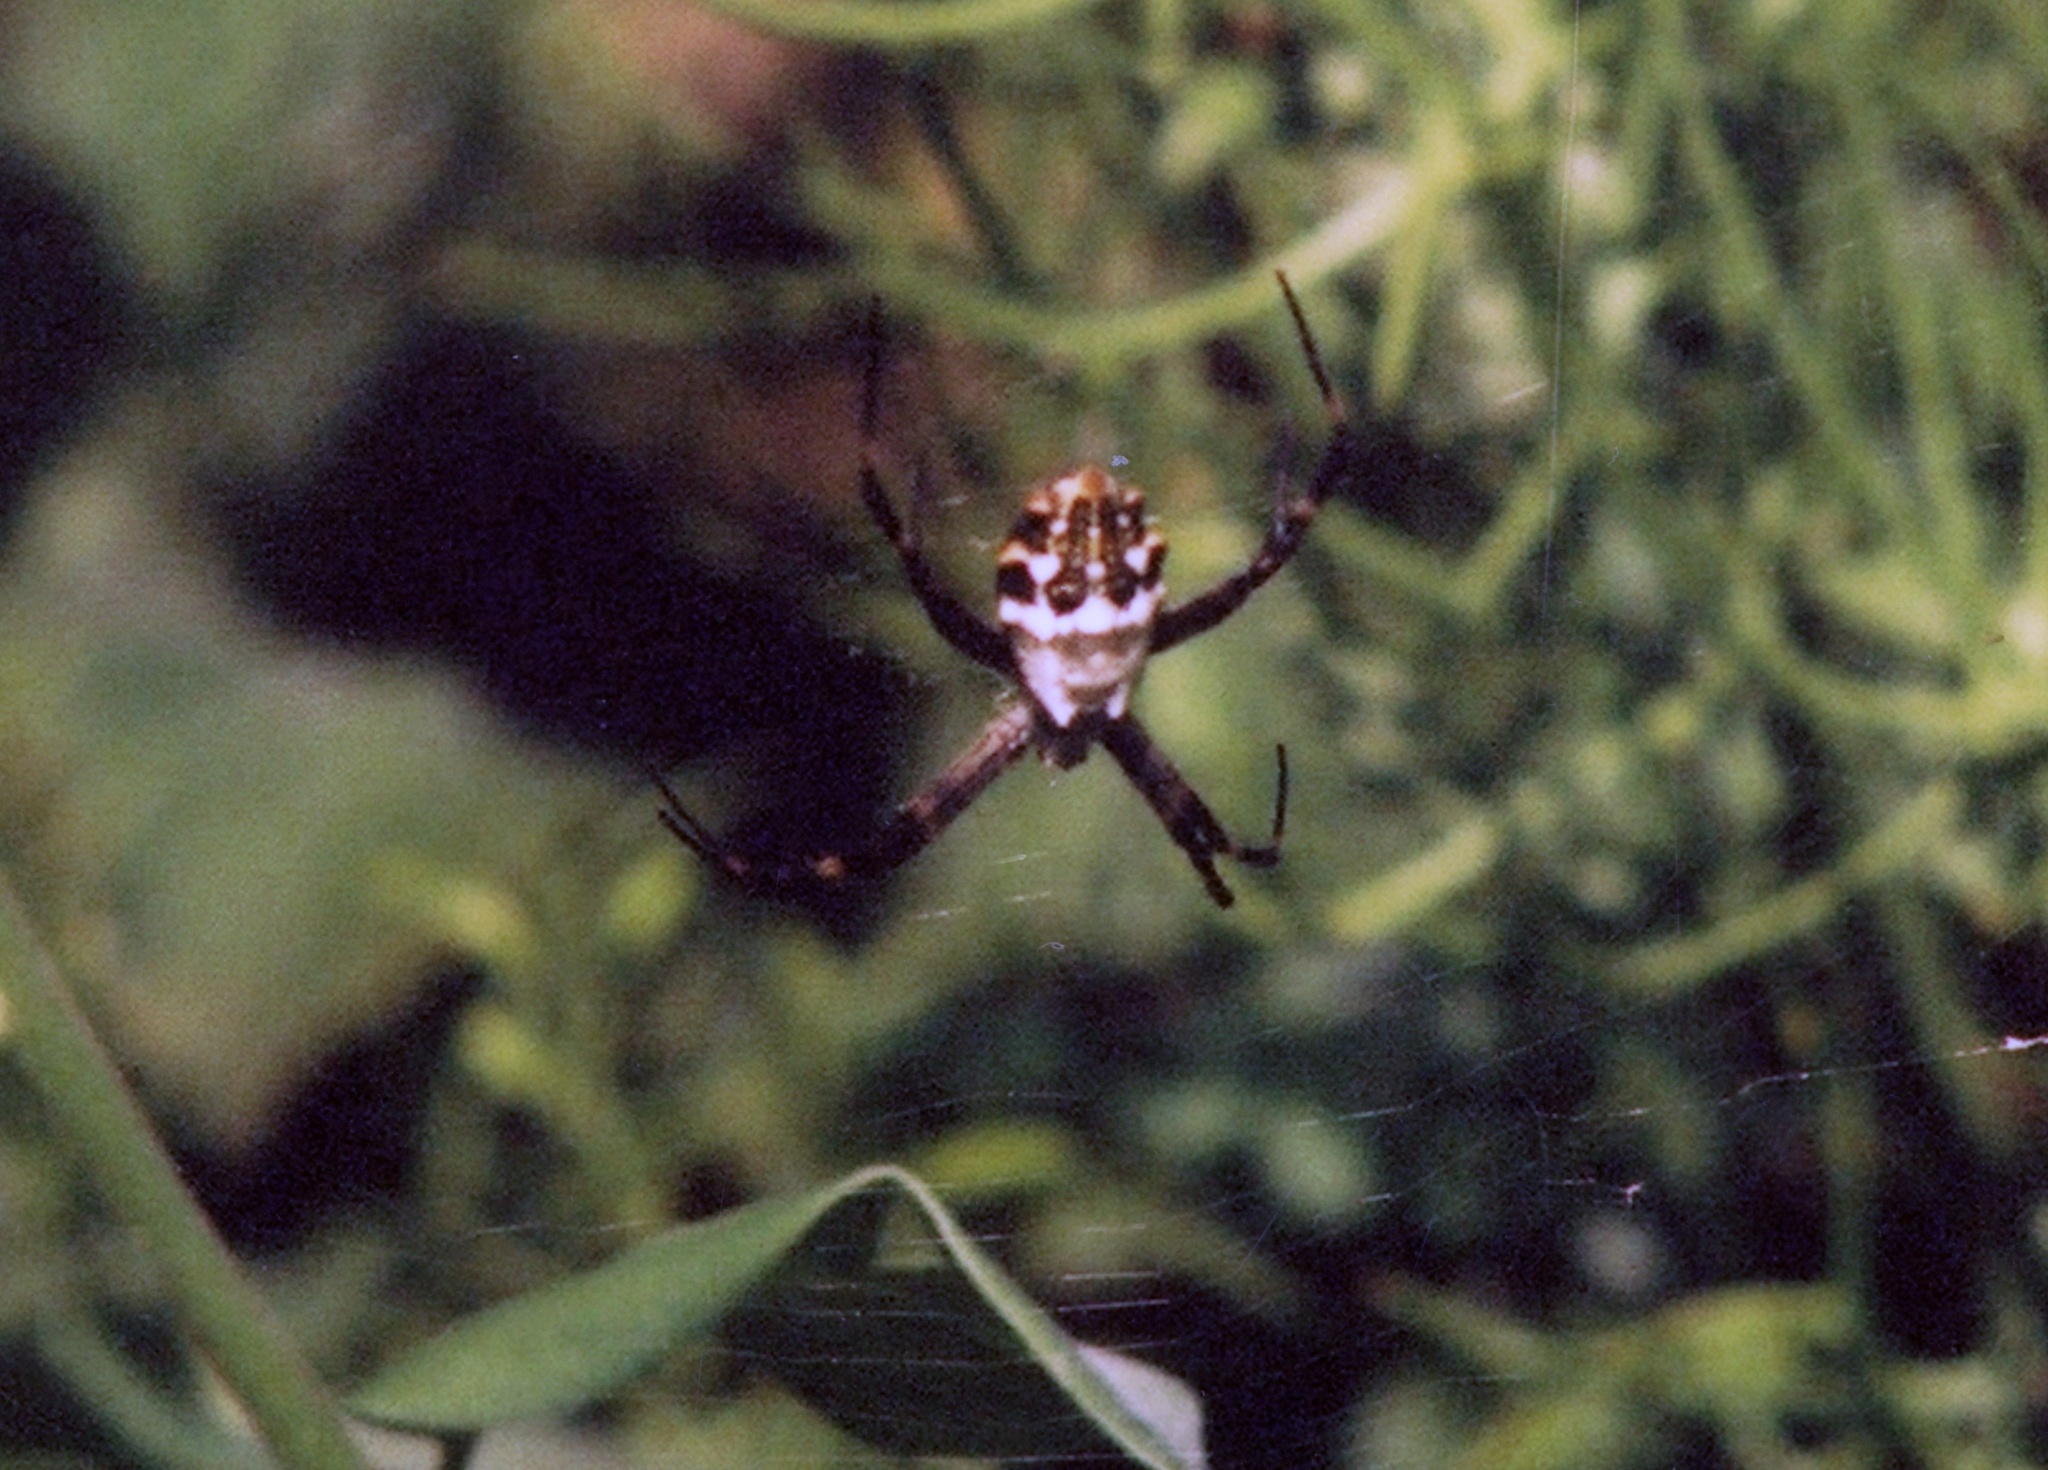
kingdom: Animalia
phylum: Arthropoda
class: Arachnida
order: Araneae
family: Araneidae
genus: Argiope
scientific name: Argiope argentata
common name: Orb weavers
